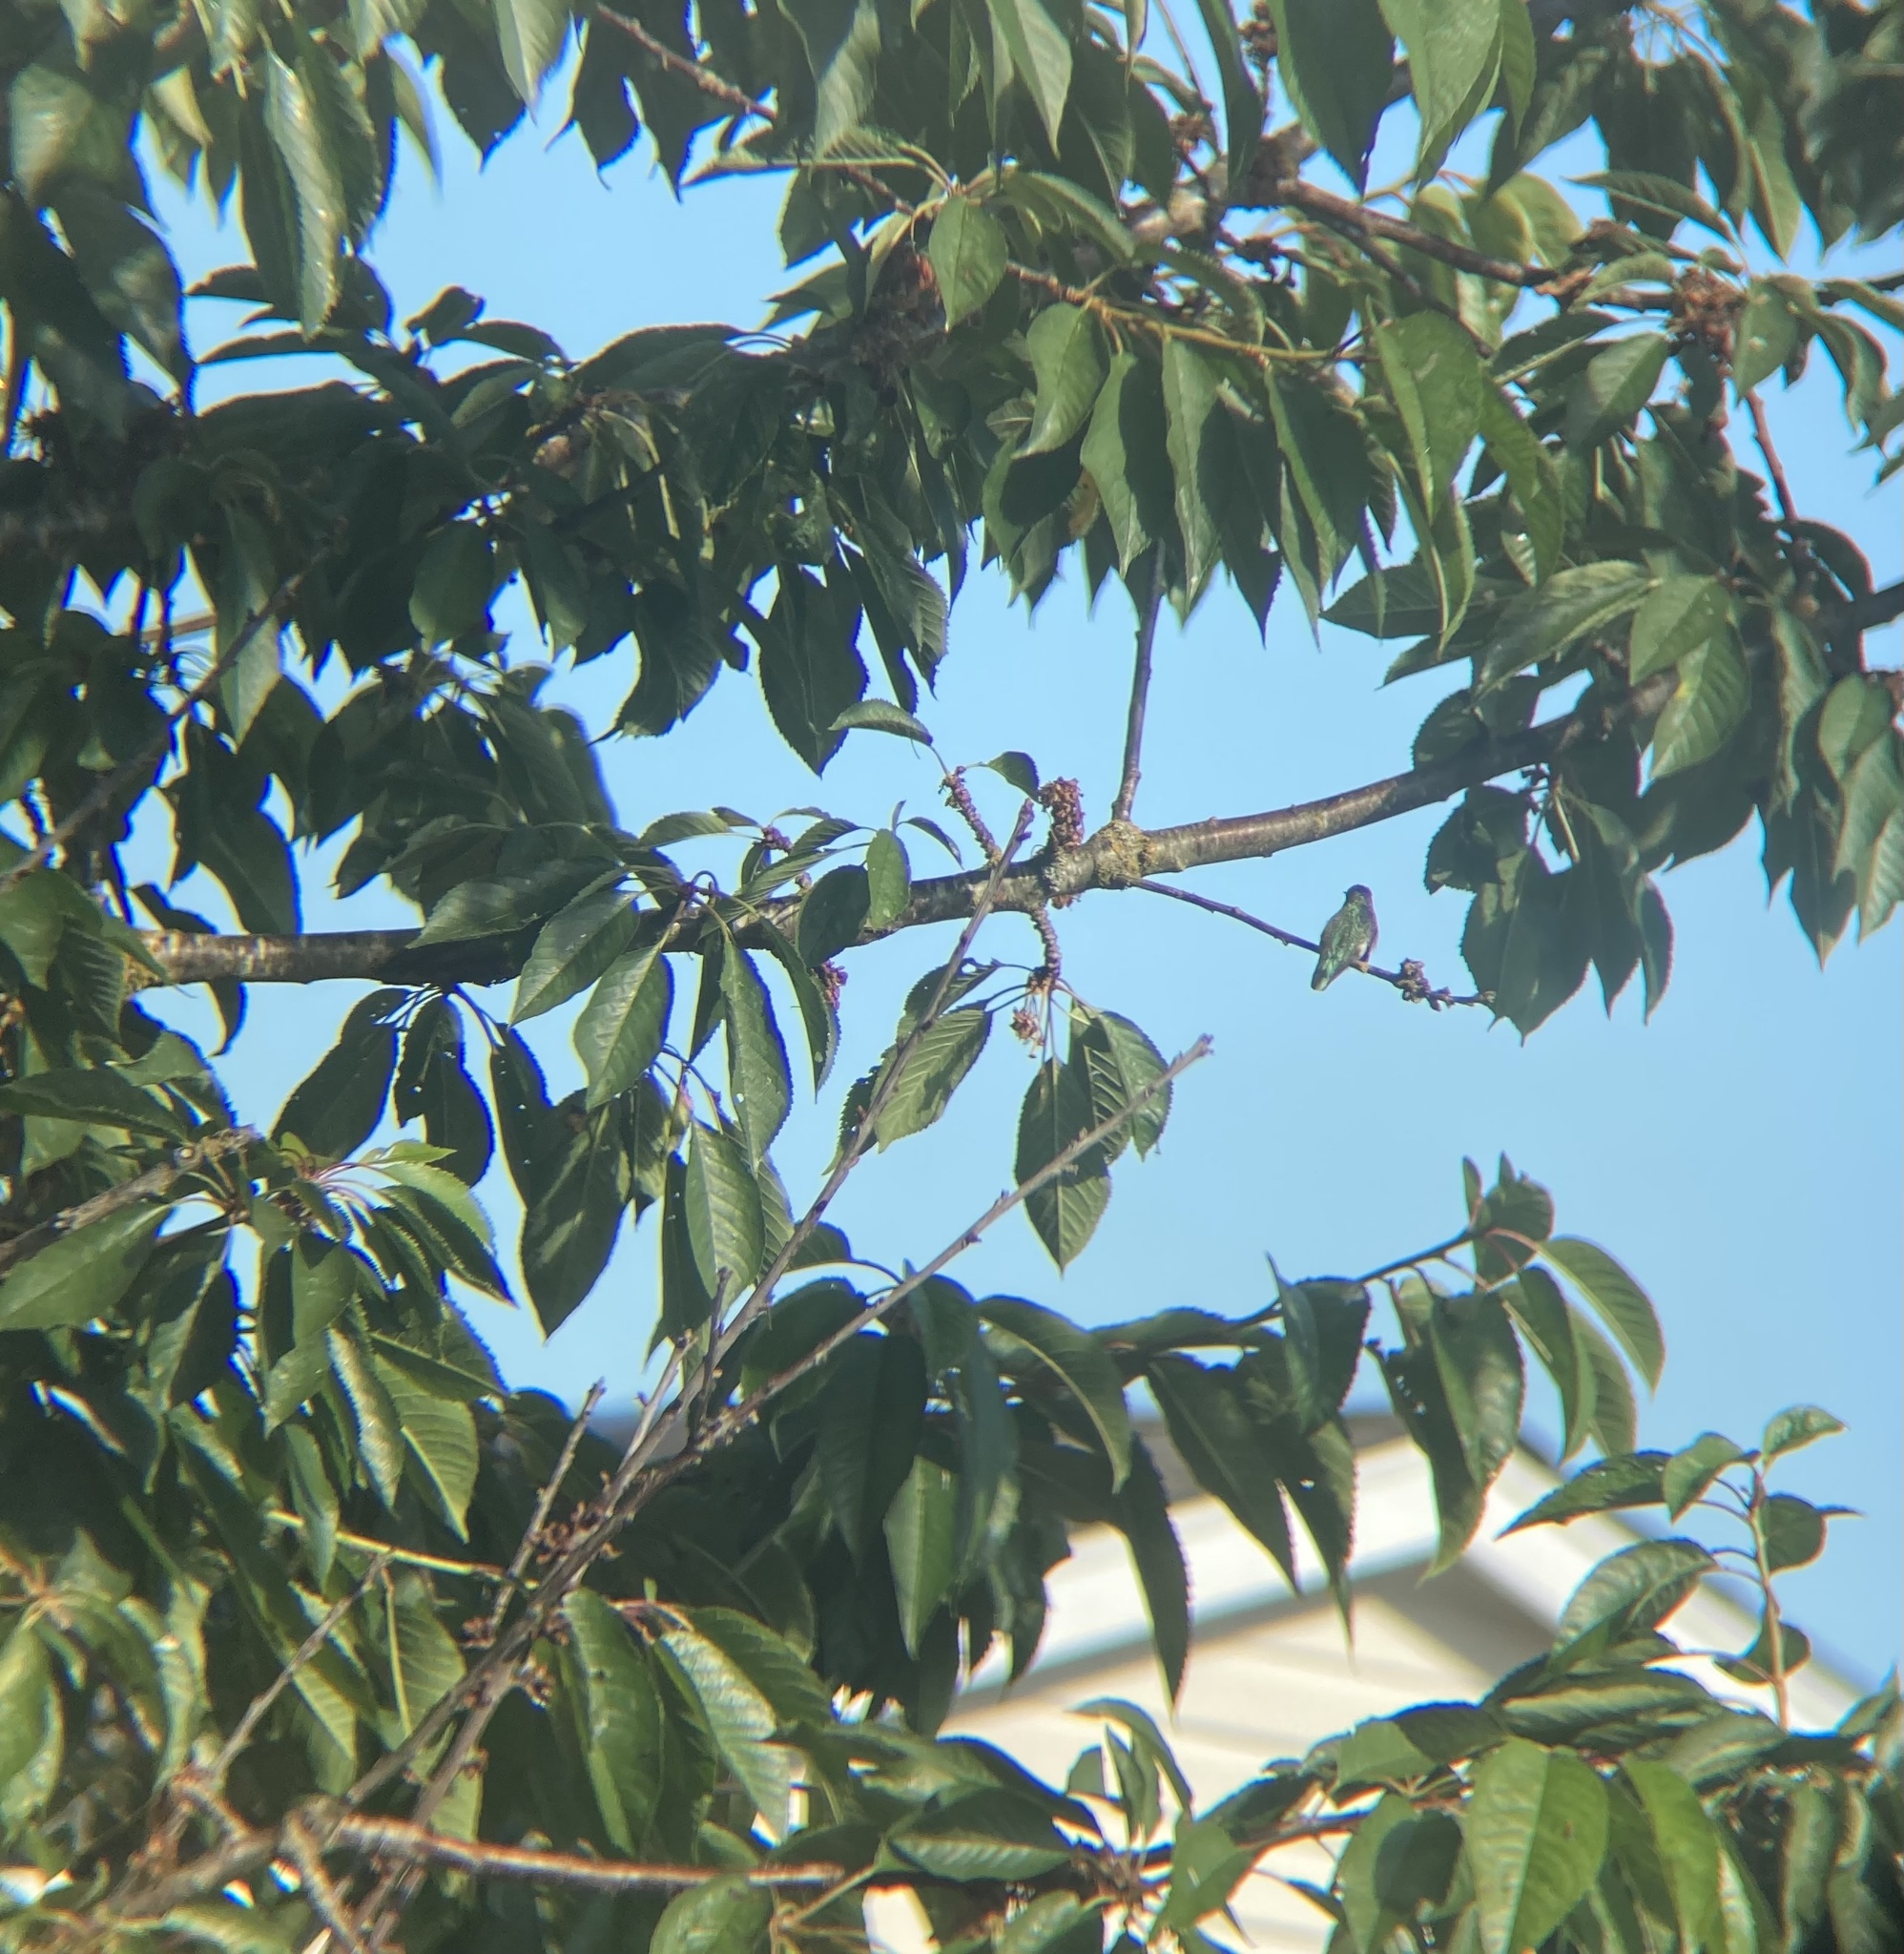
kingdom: Animalia
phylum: Chordata
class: Aves
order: Apodiformes
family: Trochilidae
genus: Calypte
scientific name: Calypte anna
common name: Anna's hummingbird
